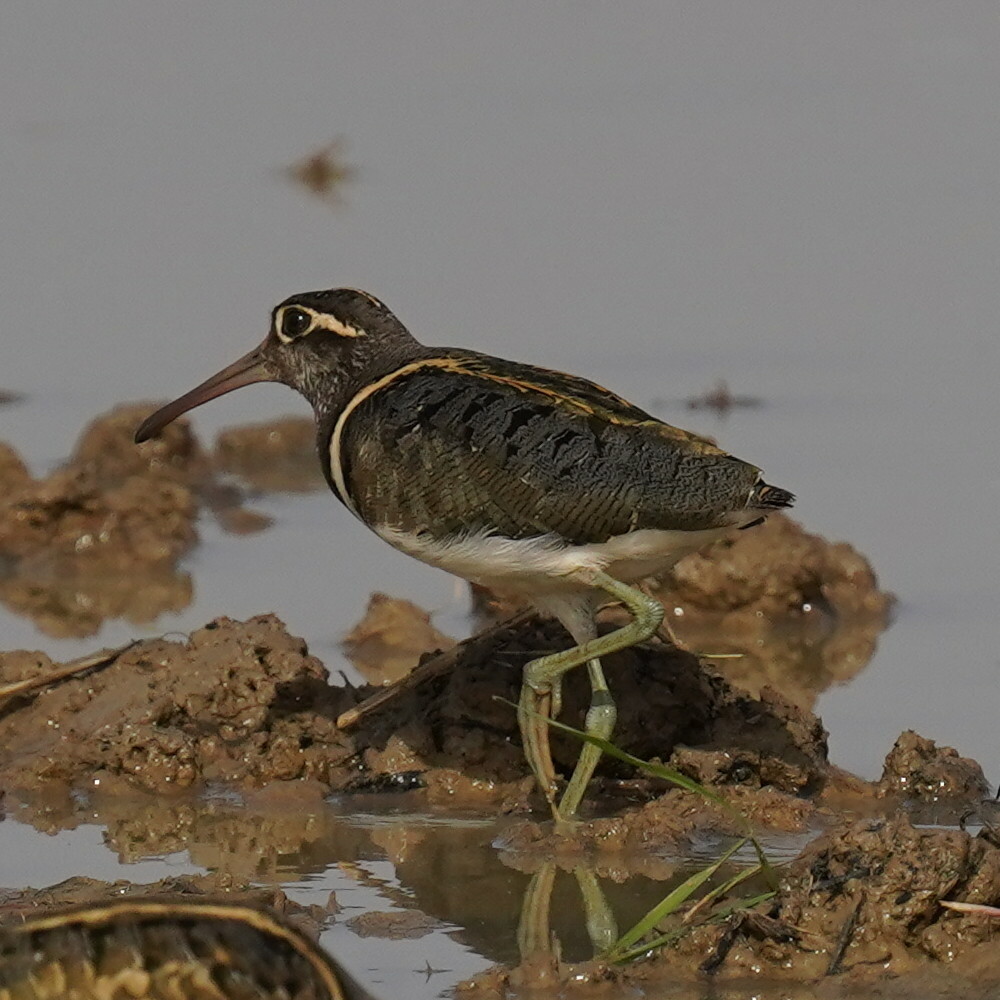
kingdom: Animalia
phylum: Chordata
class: Aves
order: Charadriiformes
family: Rostratulidae
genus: Rostratula
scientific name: Rostratula benghalensis
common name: Greater painted-snipe
